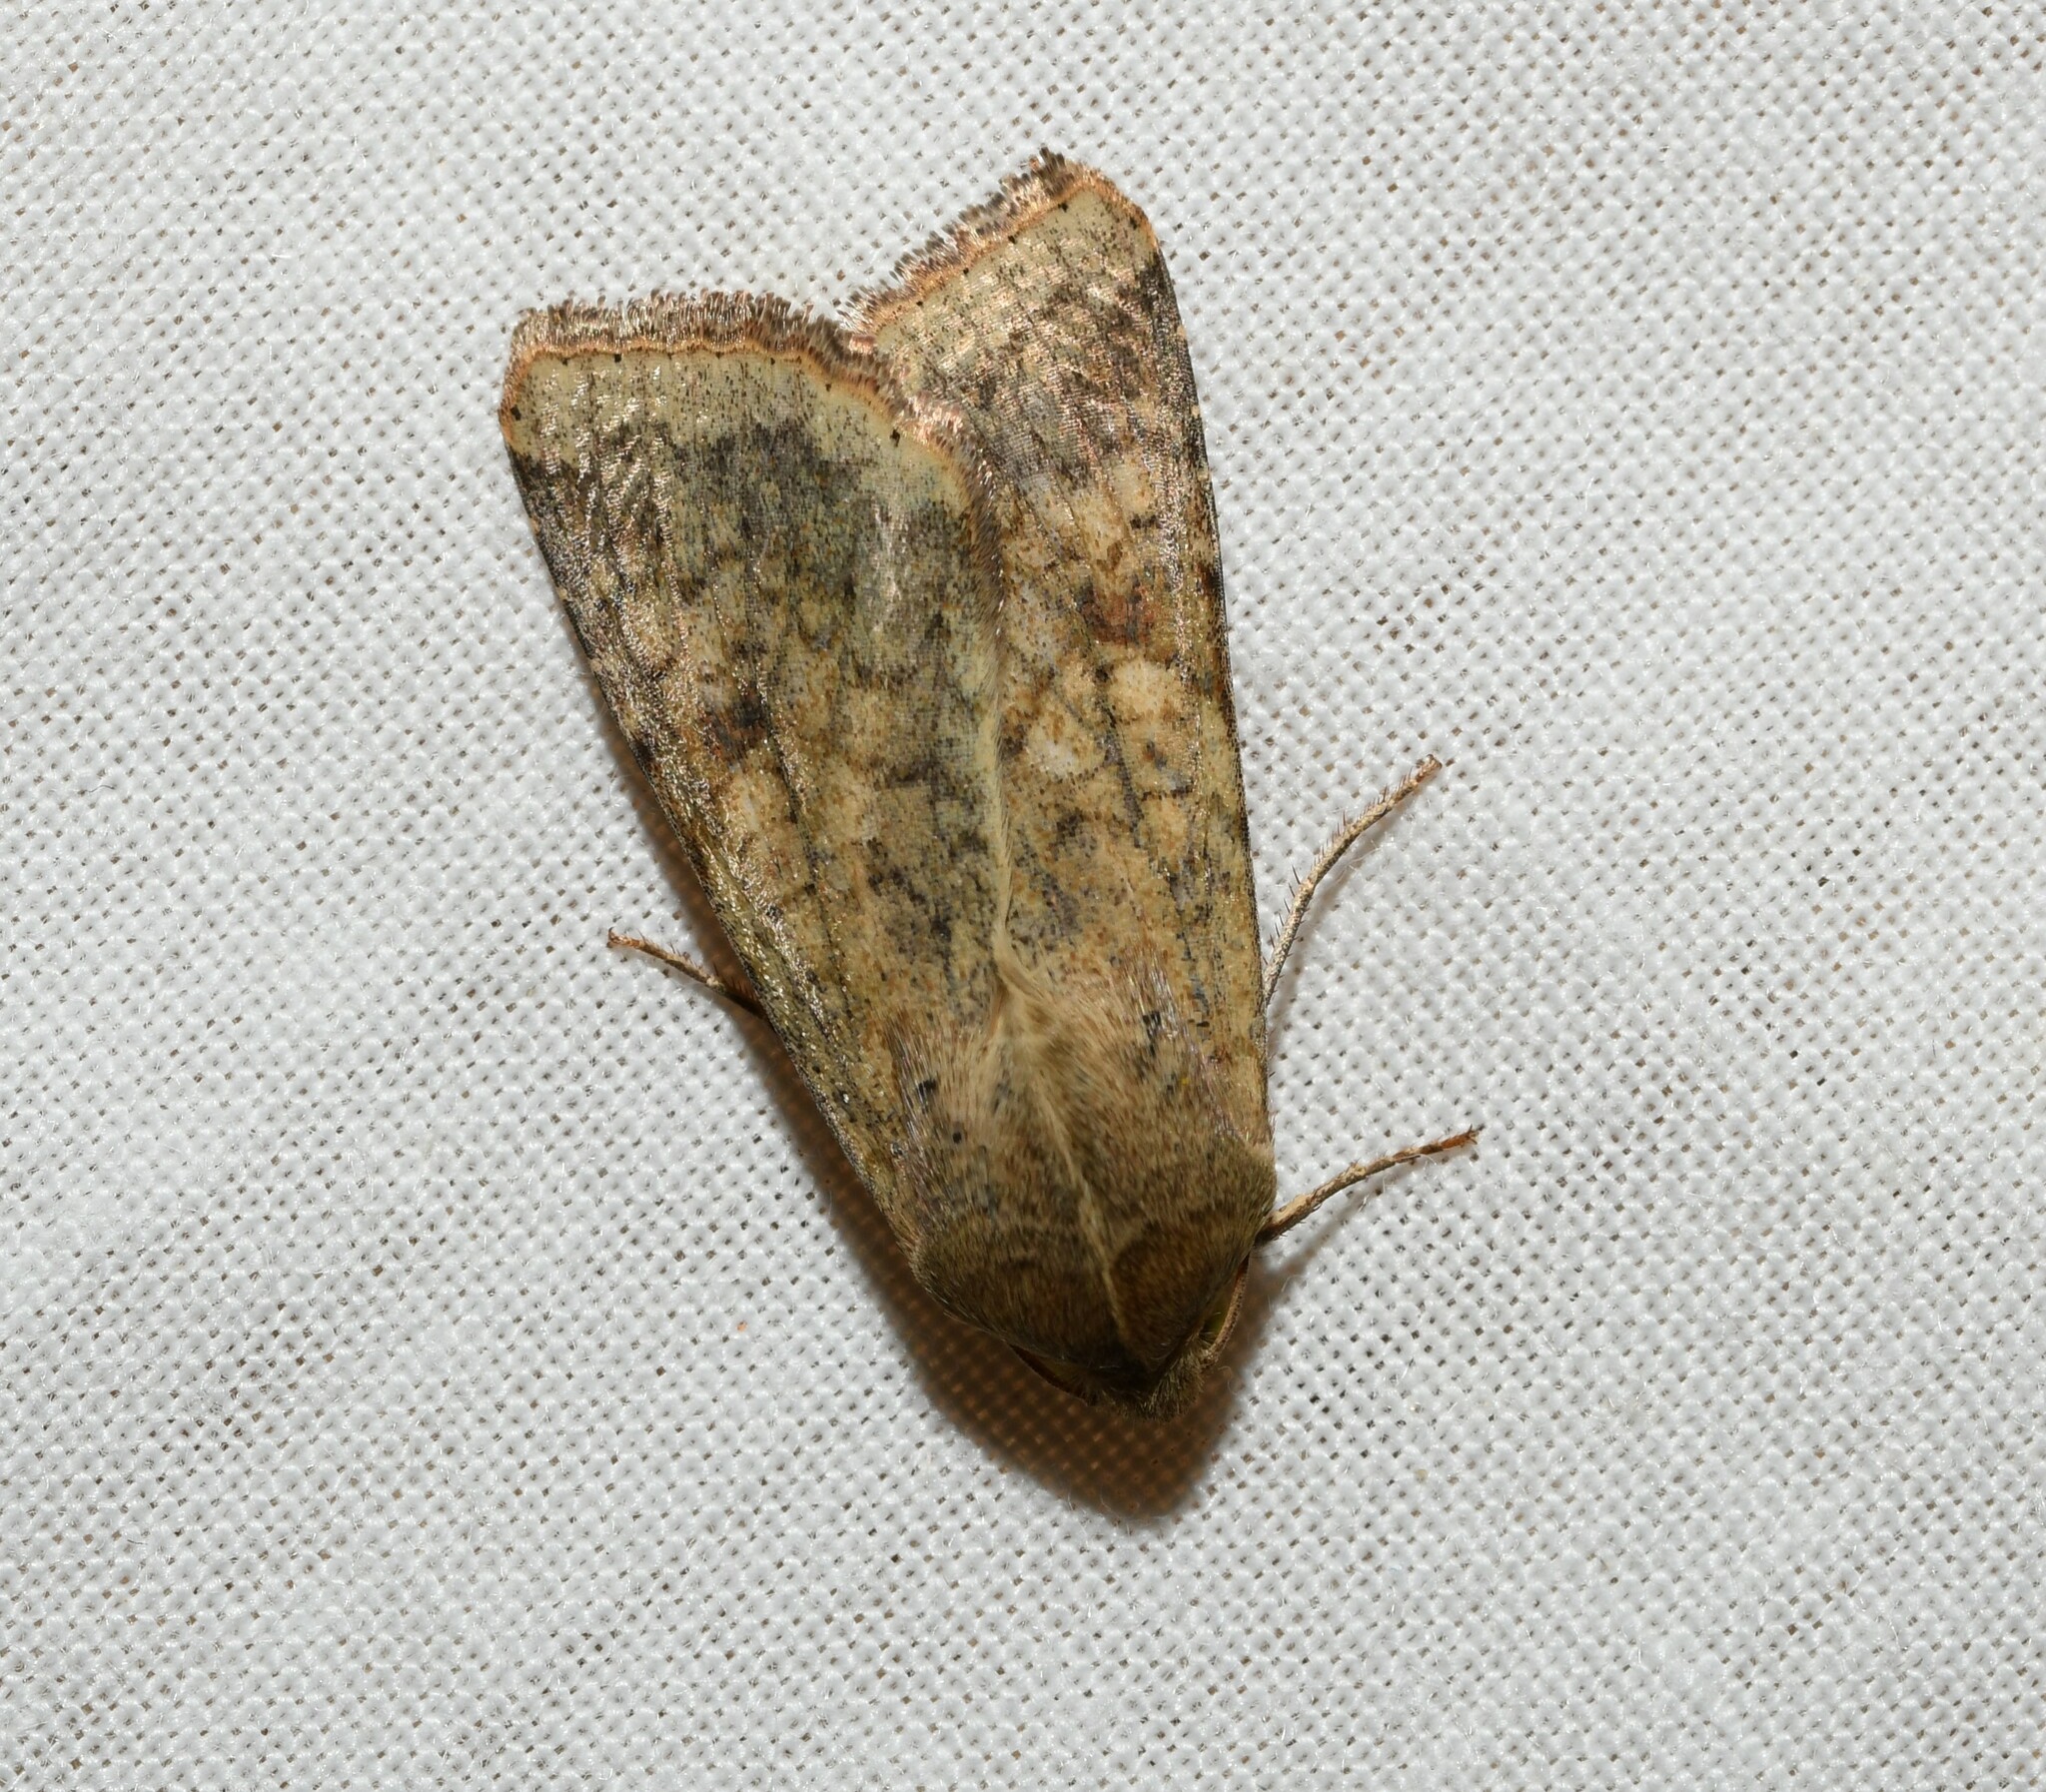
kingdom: Animalia
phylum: Arthropoda
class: Insecta
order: Lepidoptera
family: Noctuidae
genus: Helicoverpa
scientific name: Helicoverpa armigera
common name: Cotton bollworm
